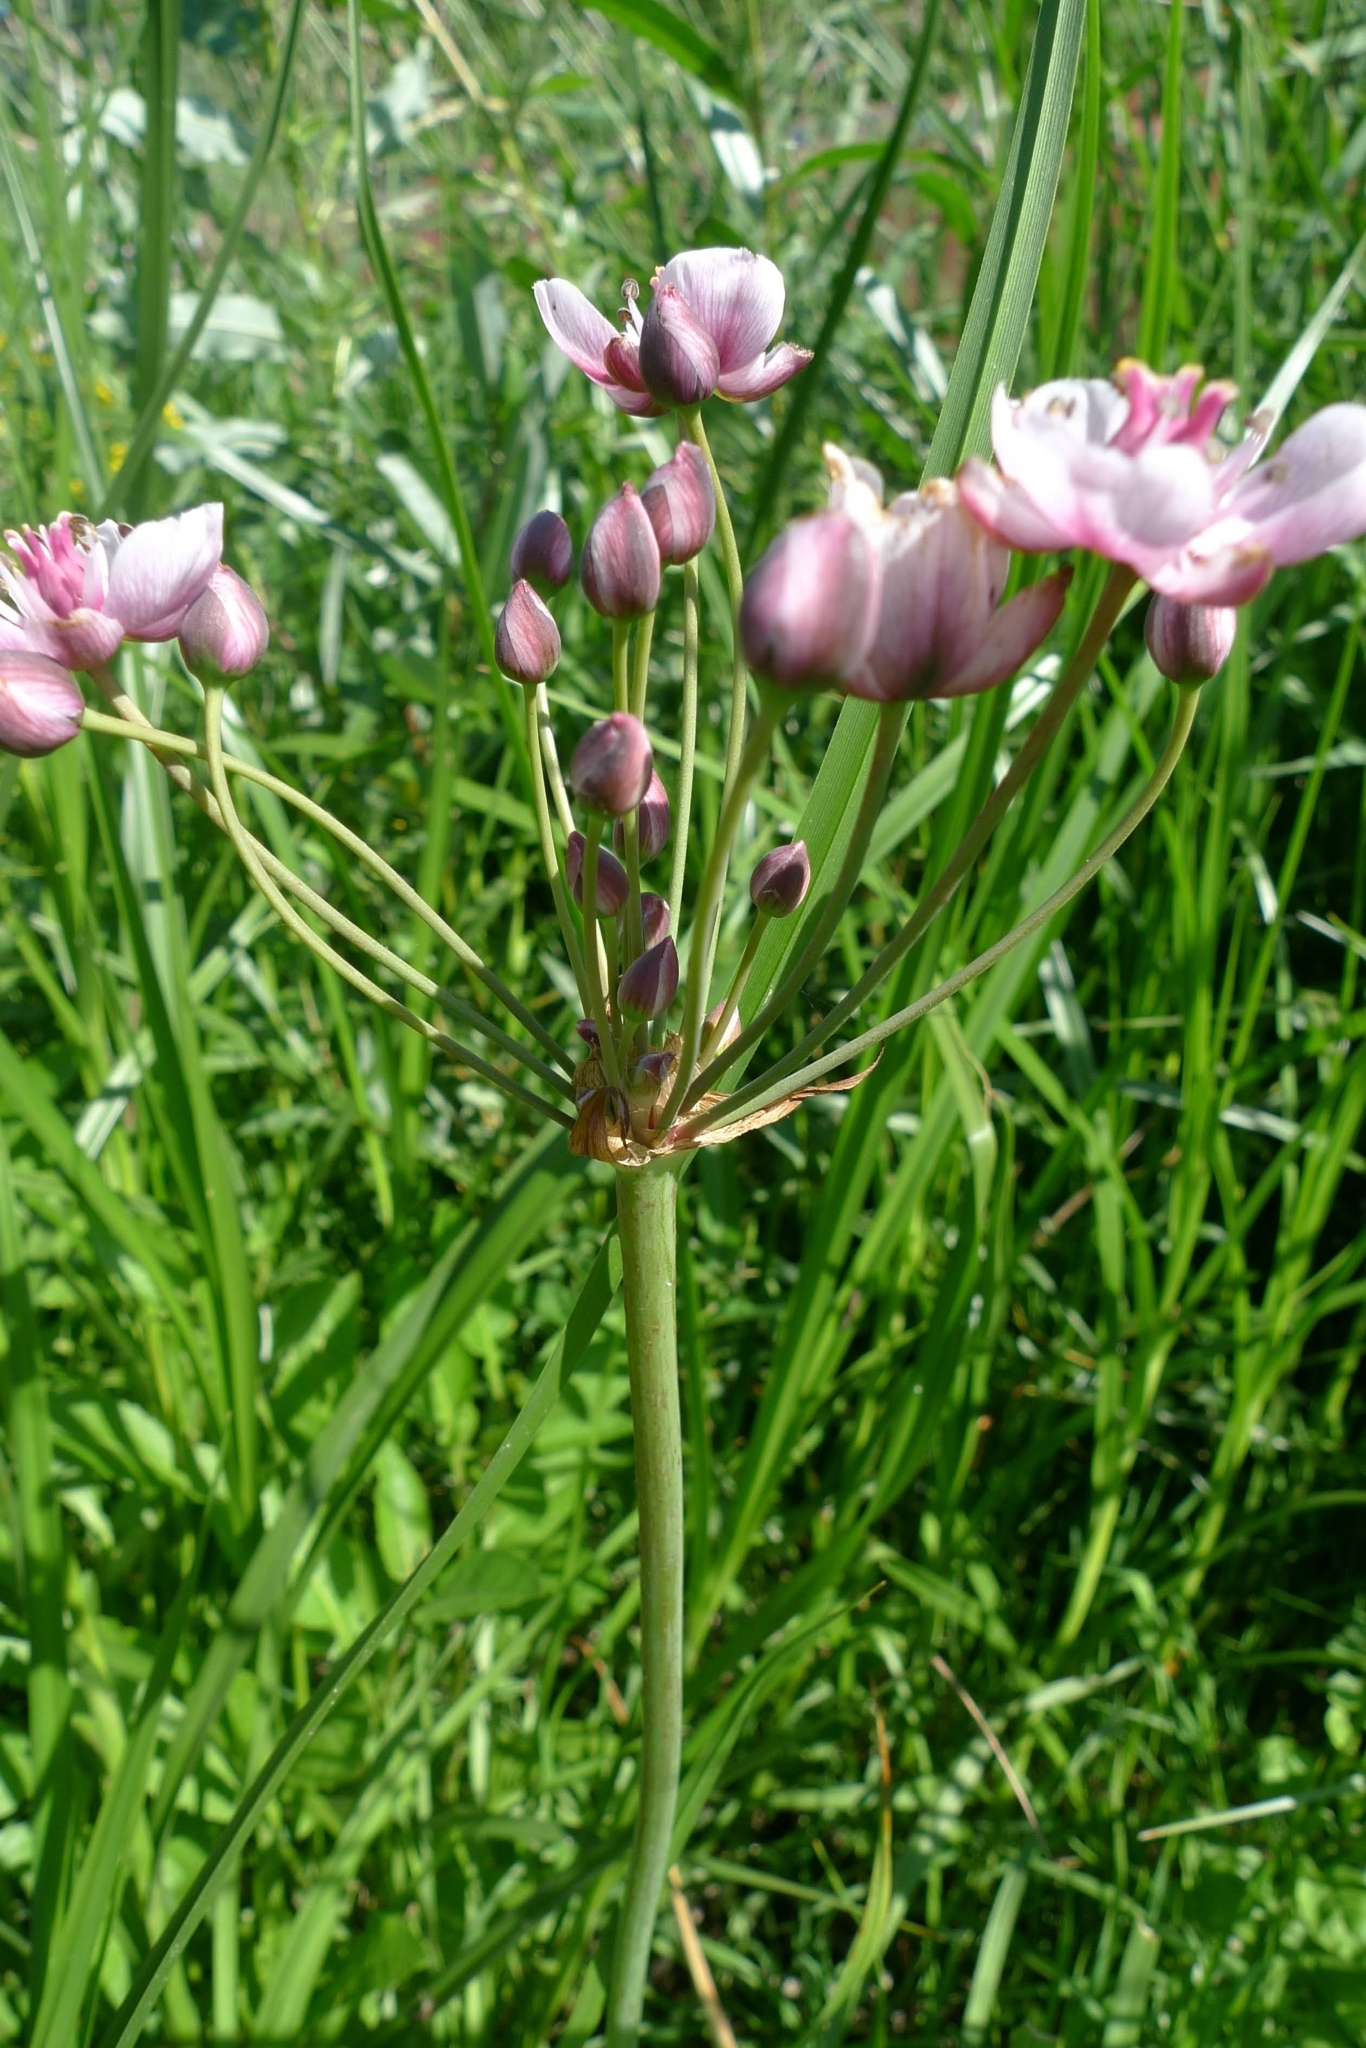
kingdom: Plantae
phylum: Tracheophyta
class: Liliopsida
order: Alismatales
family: Butomaceae
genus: Butomus
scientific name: Butomus umbellatus
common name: Flowering-rush
